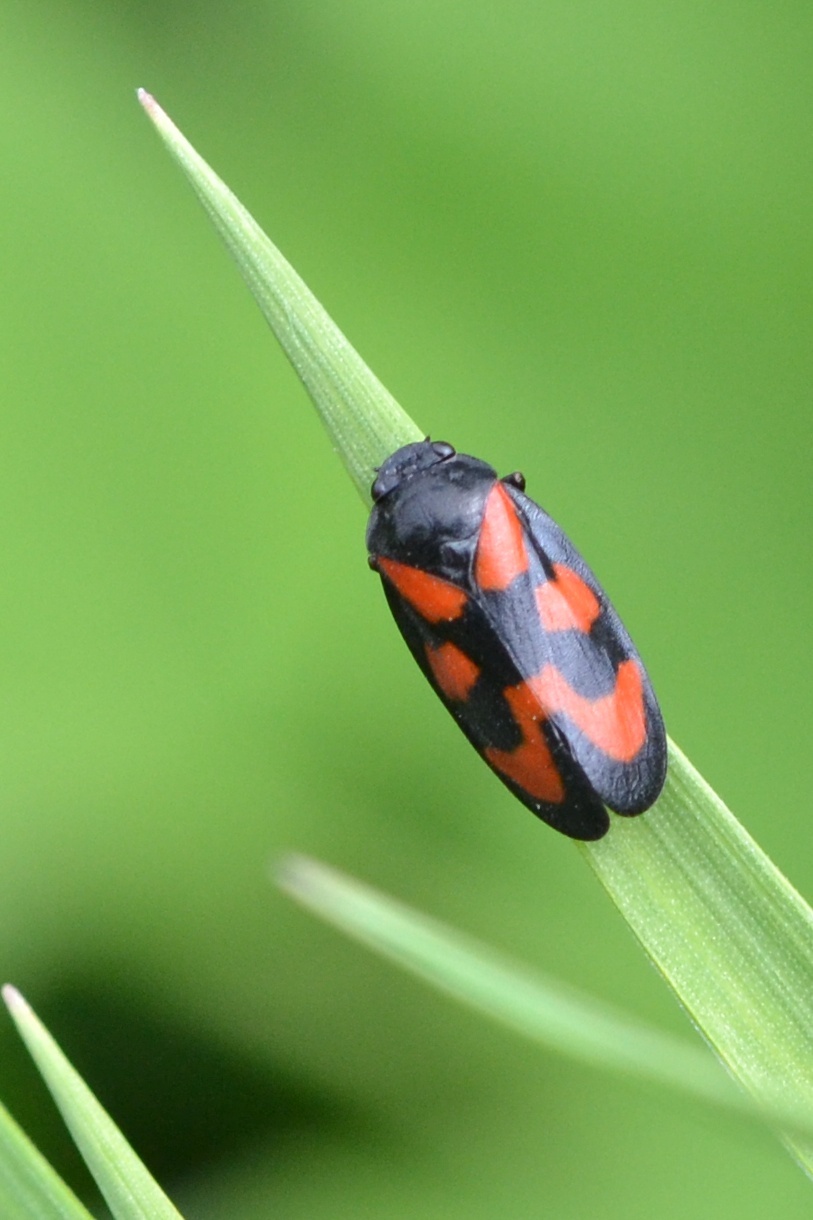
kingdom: Animalia
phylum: Arthropoda
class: Insecta
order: Hemiptera
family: Cercopidae
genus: Cercopis
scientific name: Cercopis vulnerata
